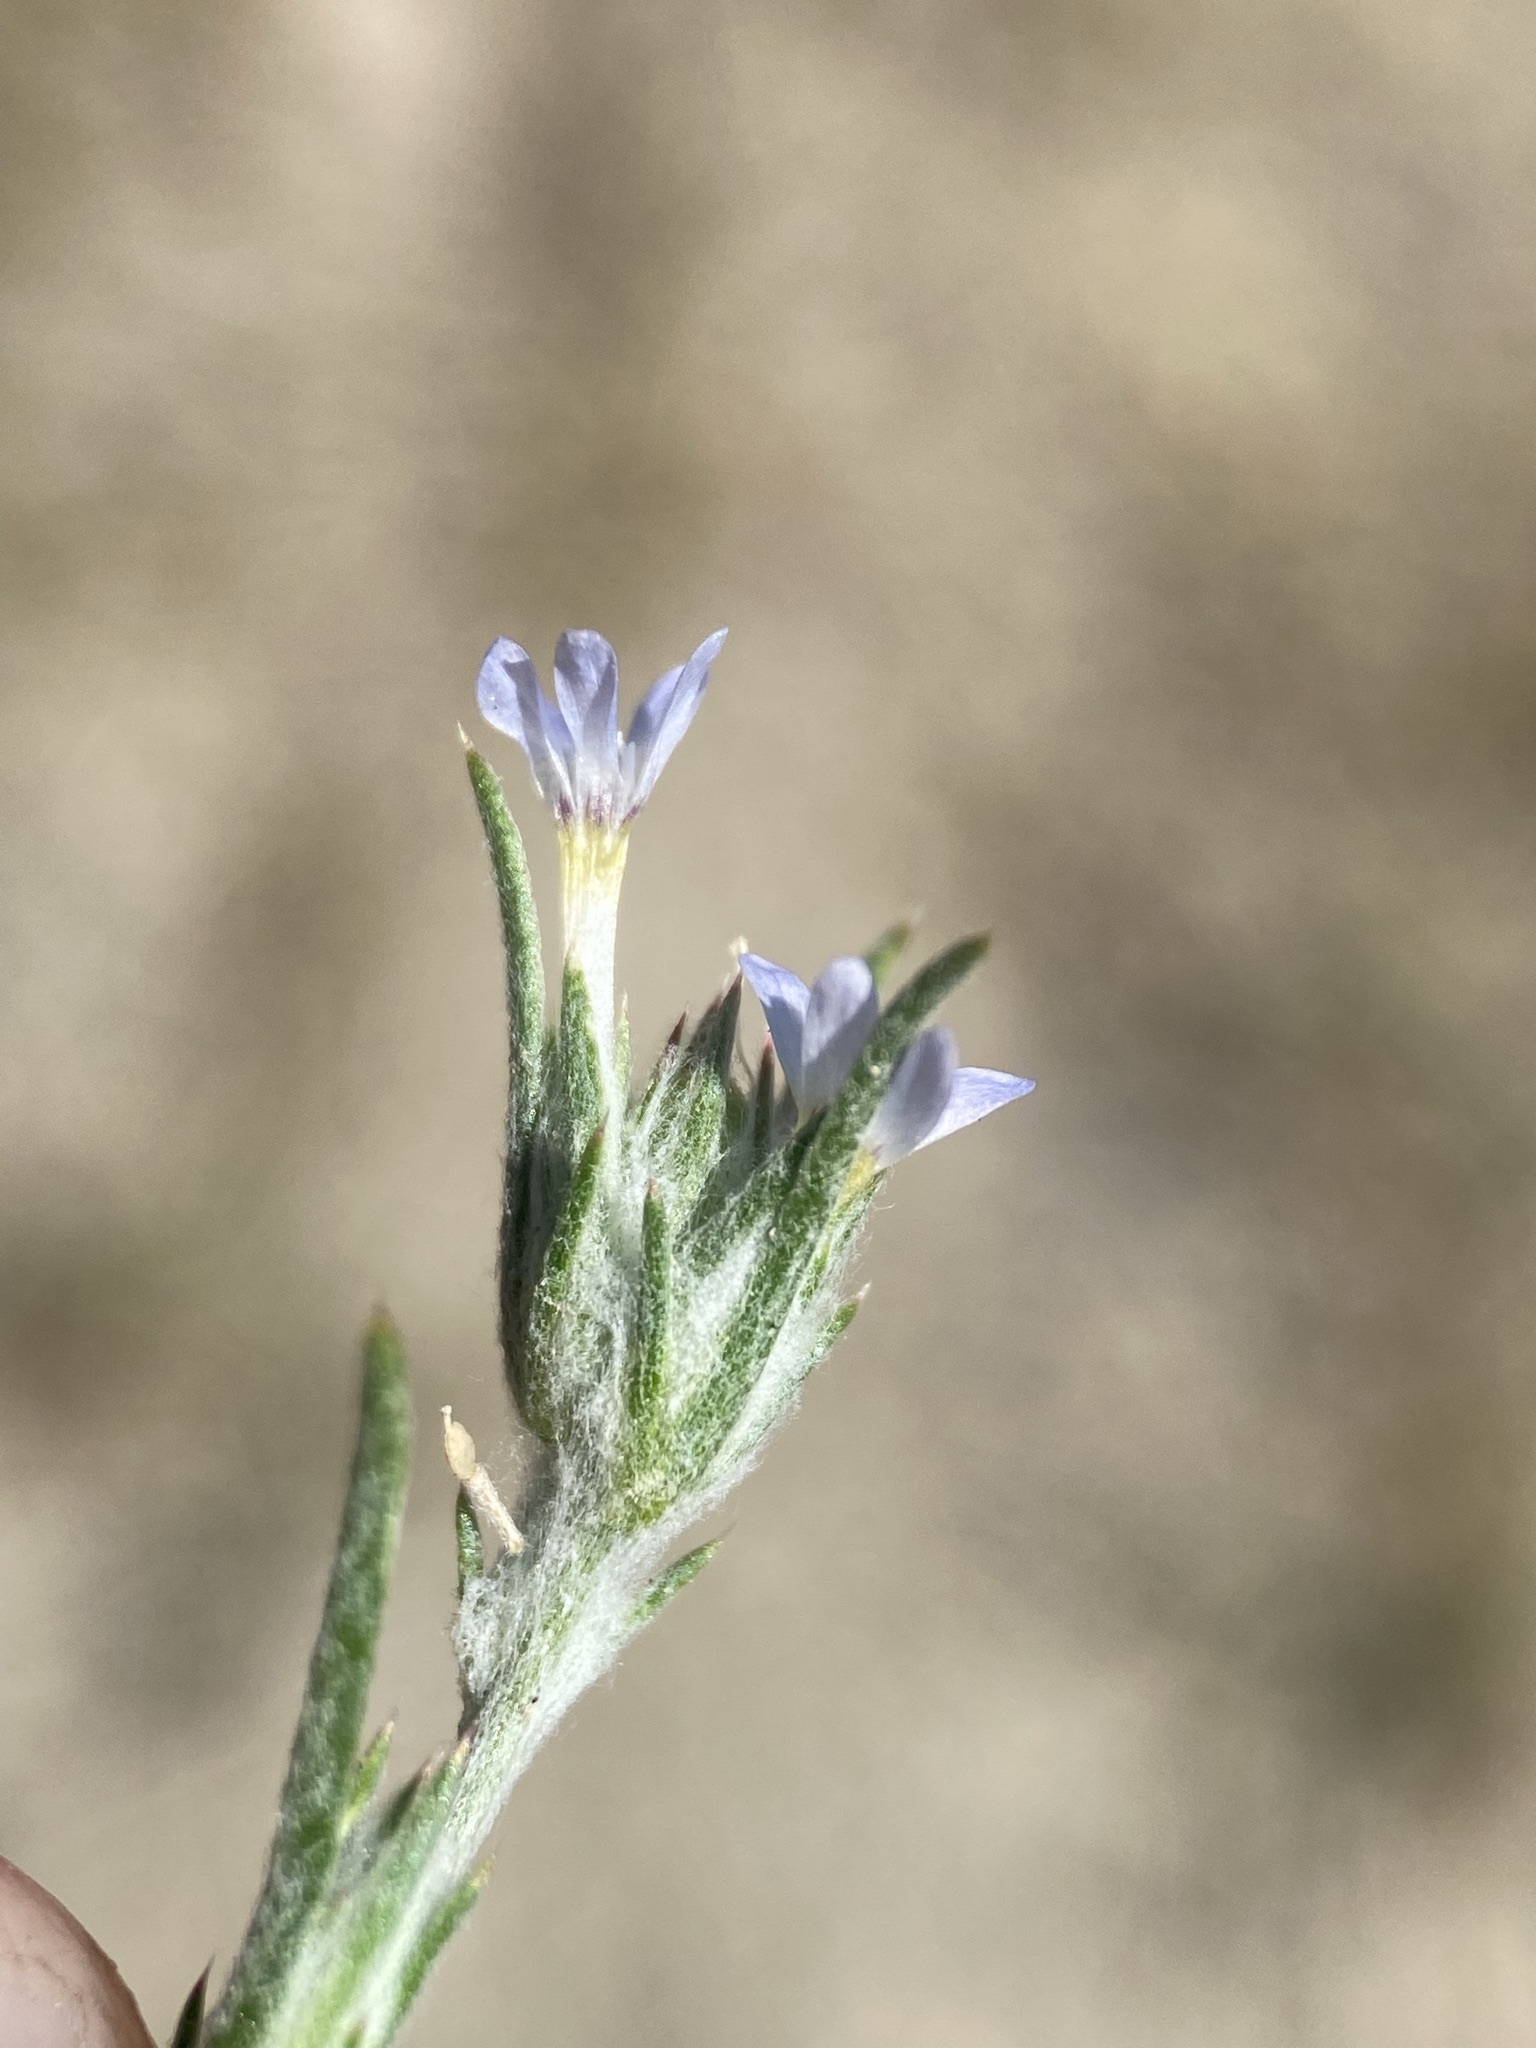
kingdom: Plantae
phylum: Tracheophyta
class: Magnoliopsida
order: Ericales
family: Polemoniaceae
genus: Eriastrum
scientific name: Eriastrum signatum
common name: Great basin woollystar
